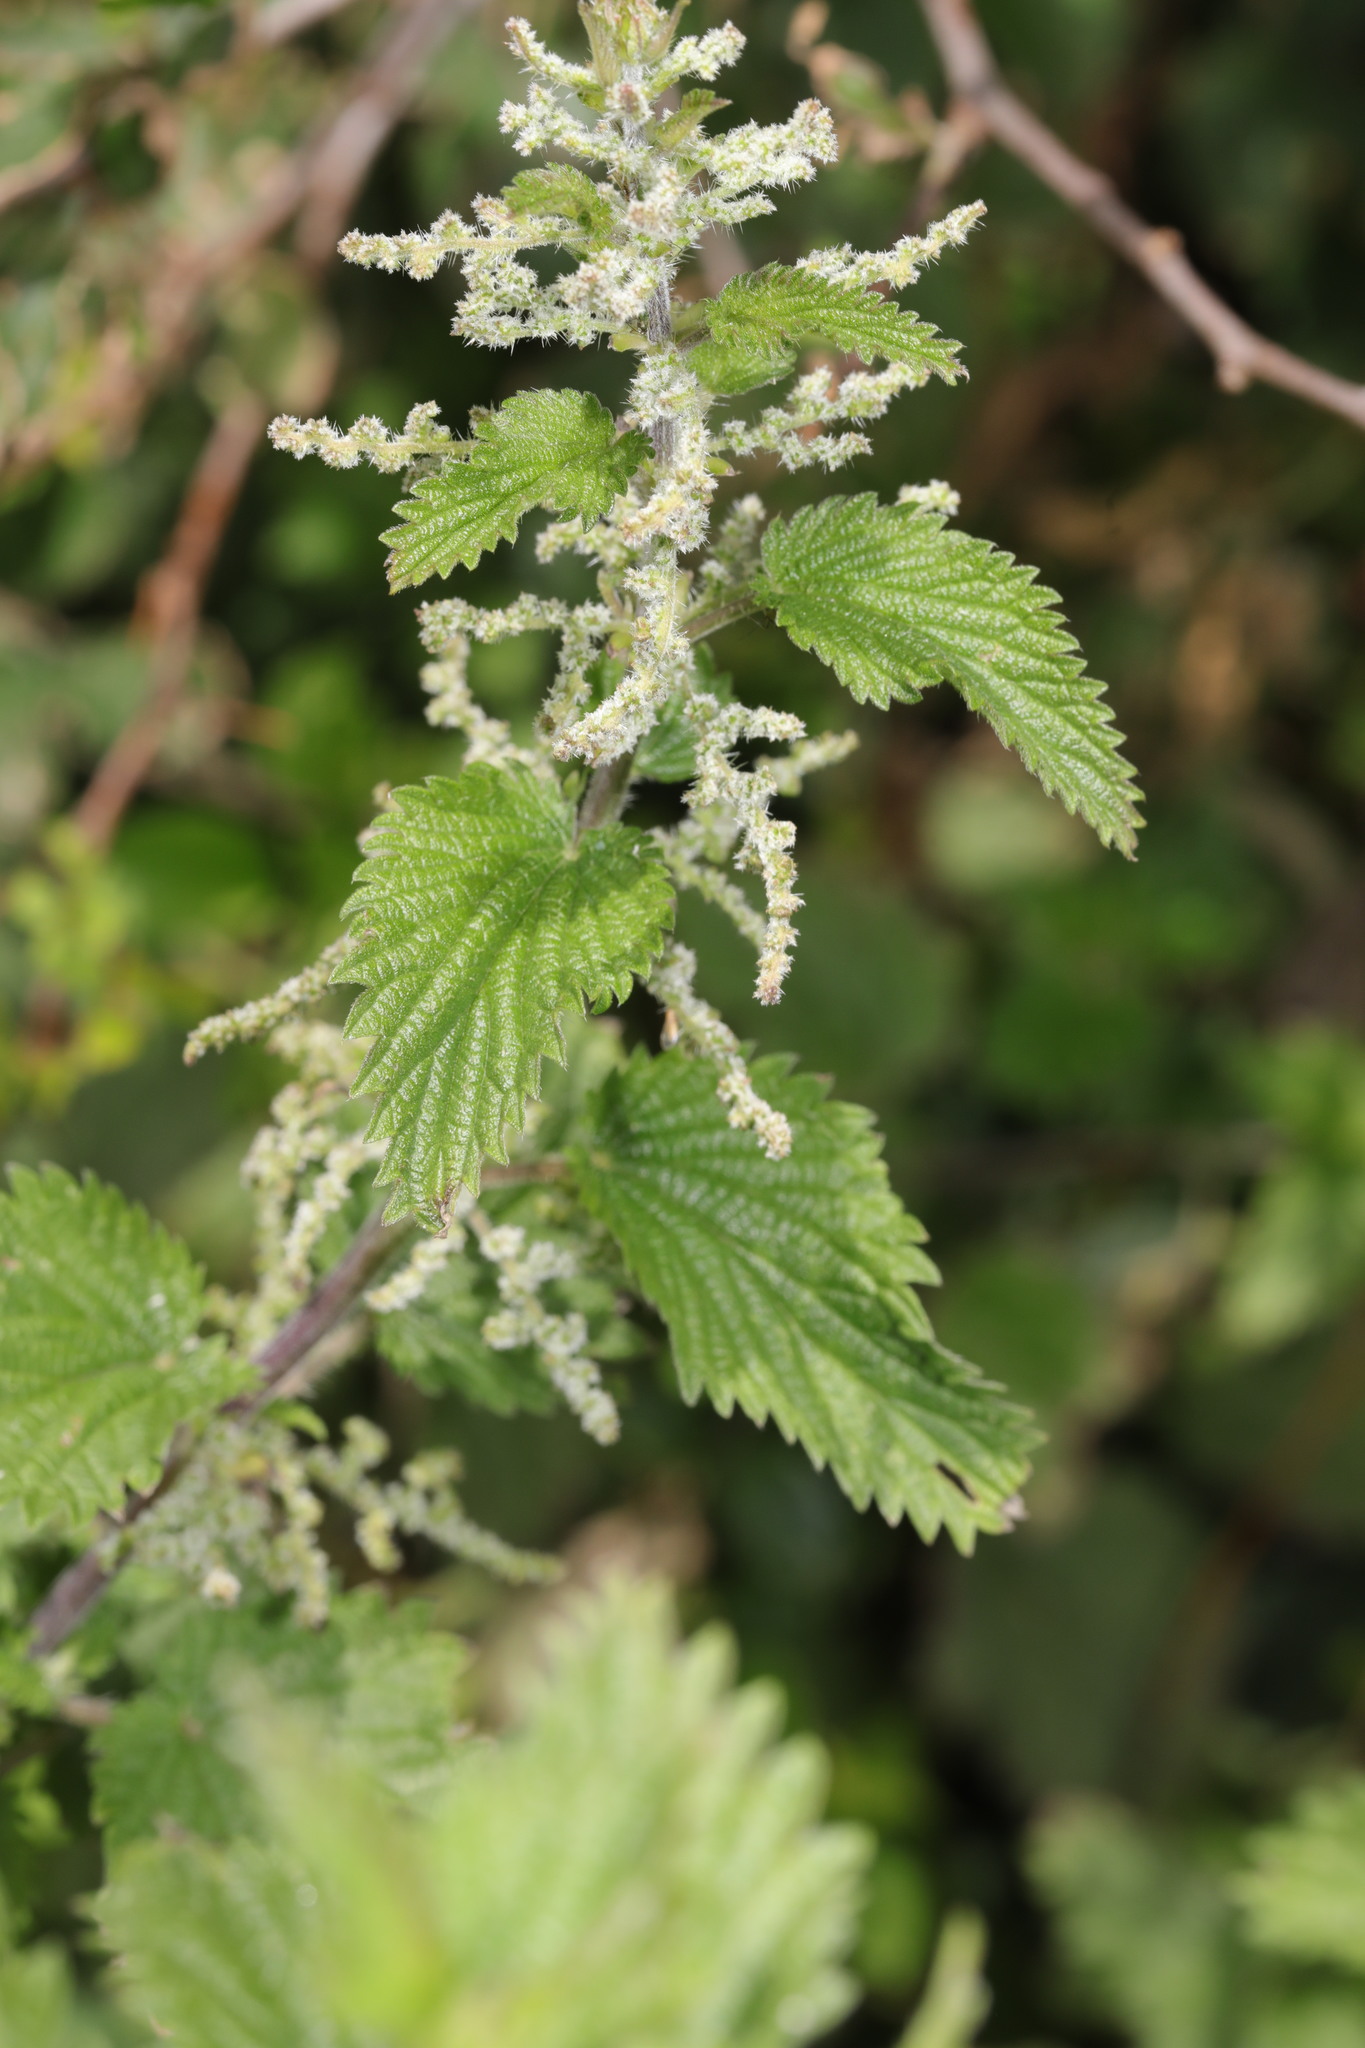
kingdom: Plantae
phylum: Tracheophyta
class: Magnoliopsida
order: Rosales
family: Urticaceae
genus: Urtica
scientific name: Urtica dioica
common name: Common nettle
